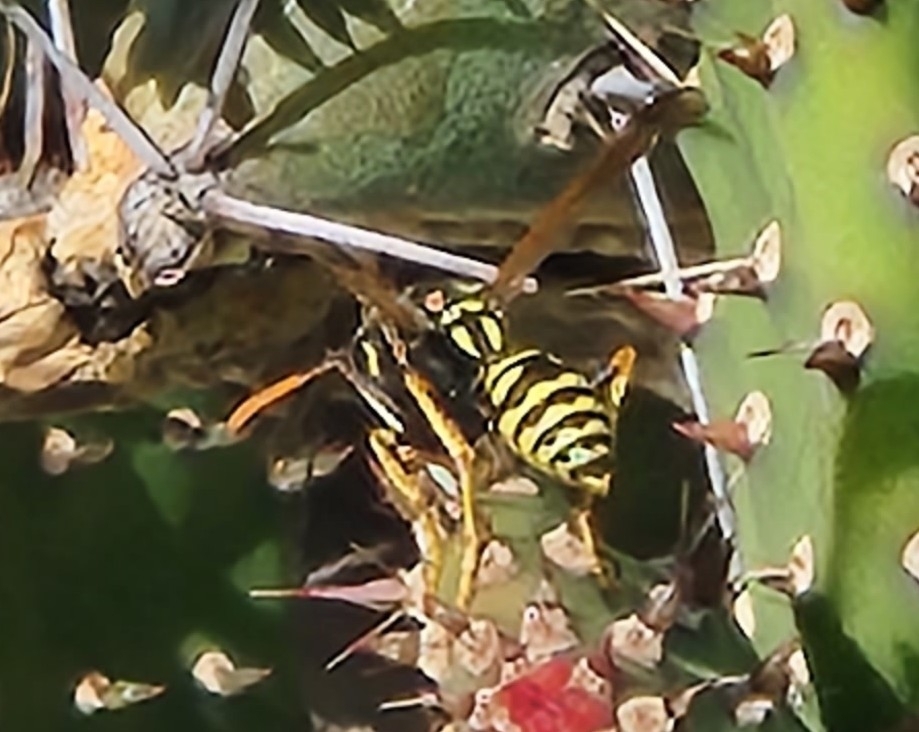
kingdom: Animalia
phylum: Arthropoda
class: Insecta
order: Hymenoptera
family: Eumenidae
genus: Polistes
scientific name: Polistes dominula
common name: Paper wasp
